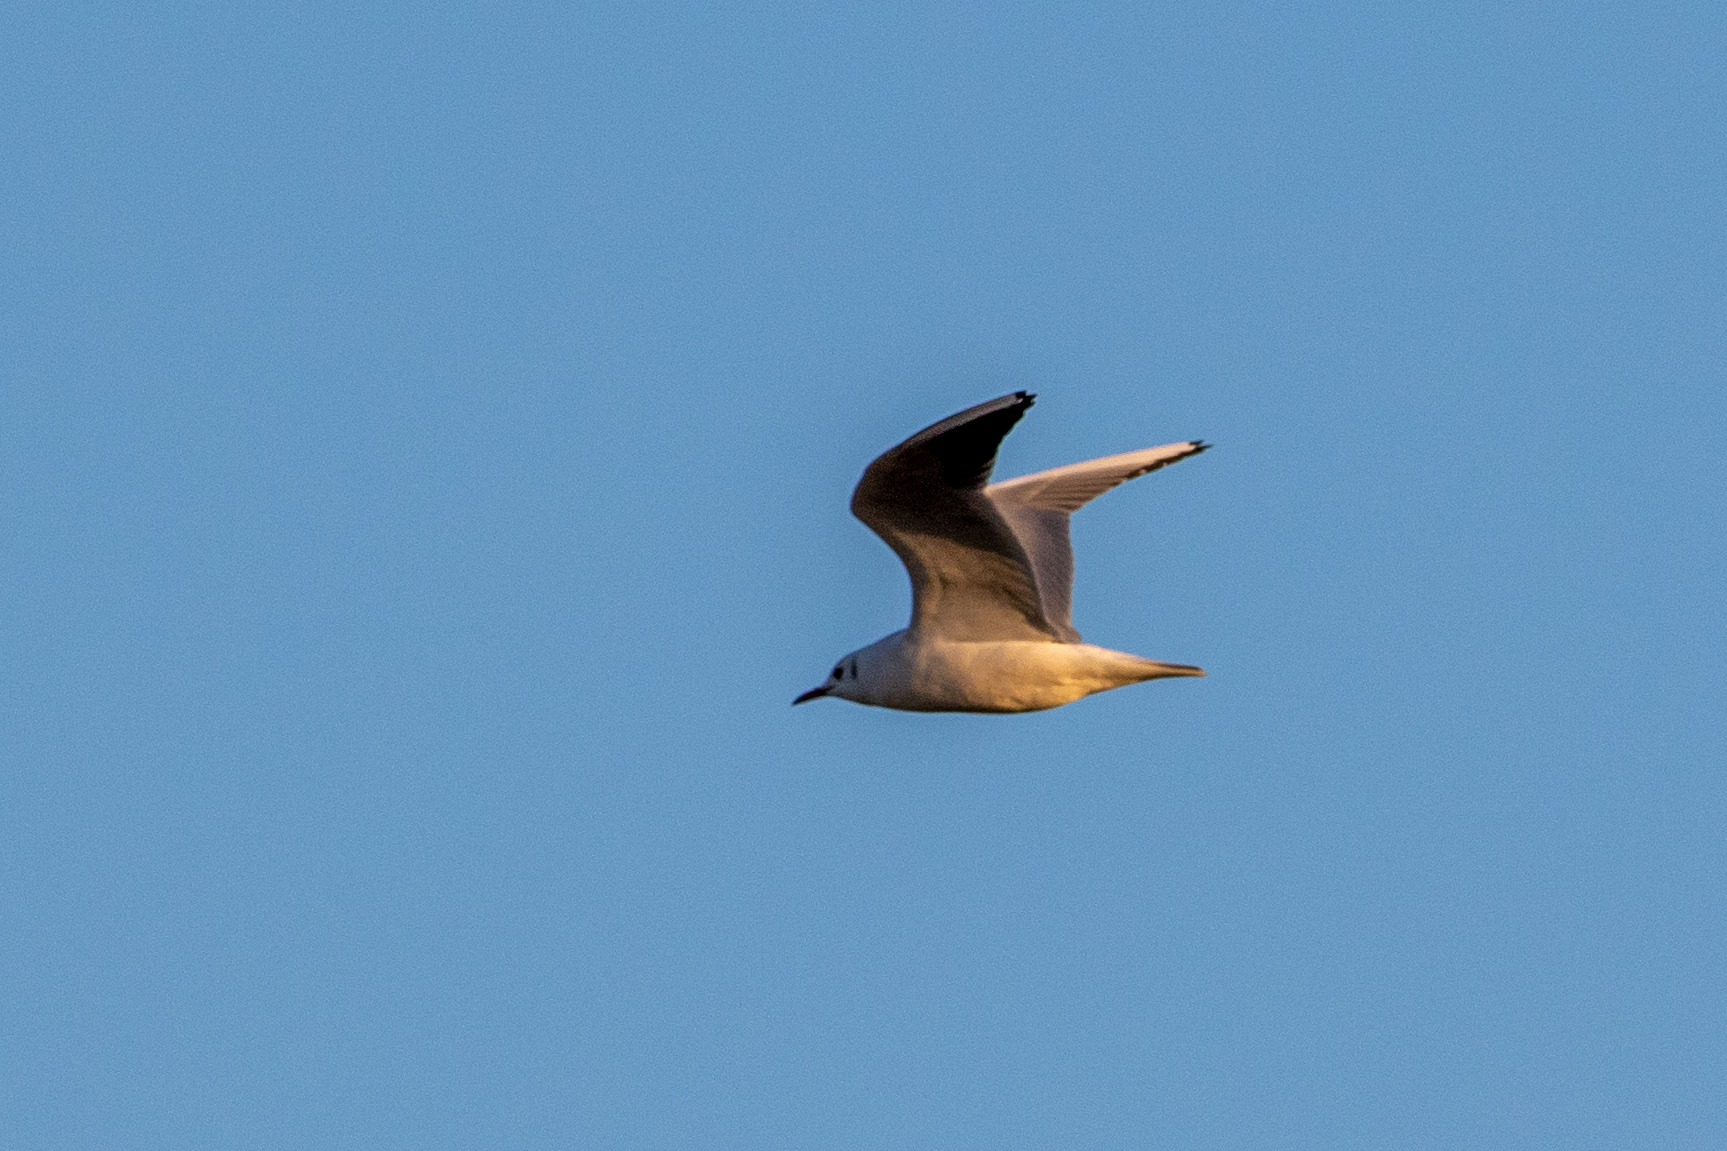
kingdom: Animalia
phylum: Chordata
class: Aves
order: Charadriiformes
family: Laridae
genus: Chroicocephalus
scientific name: Chroicocephalus ridibundus
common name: Black-headed gull
